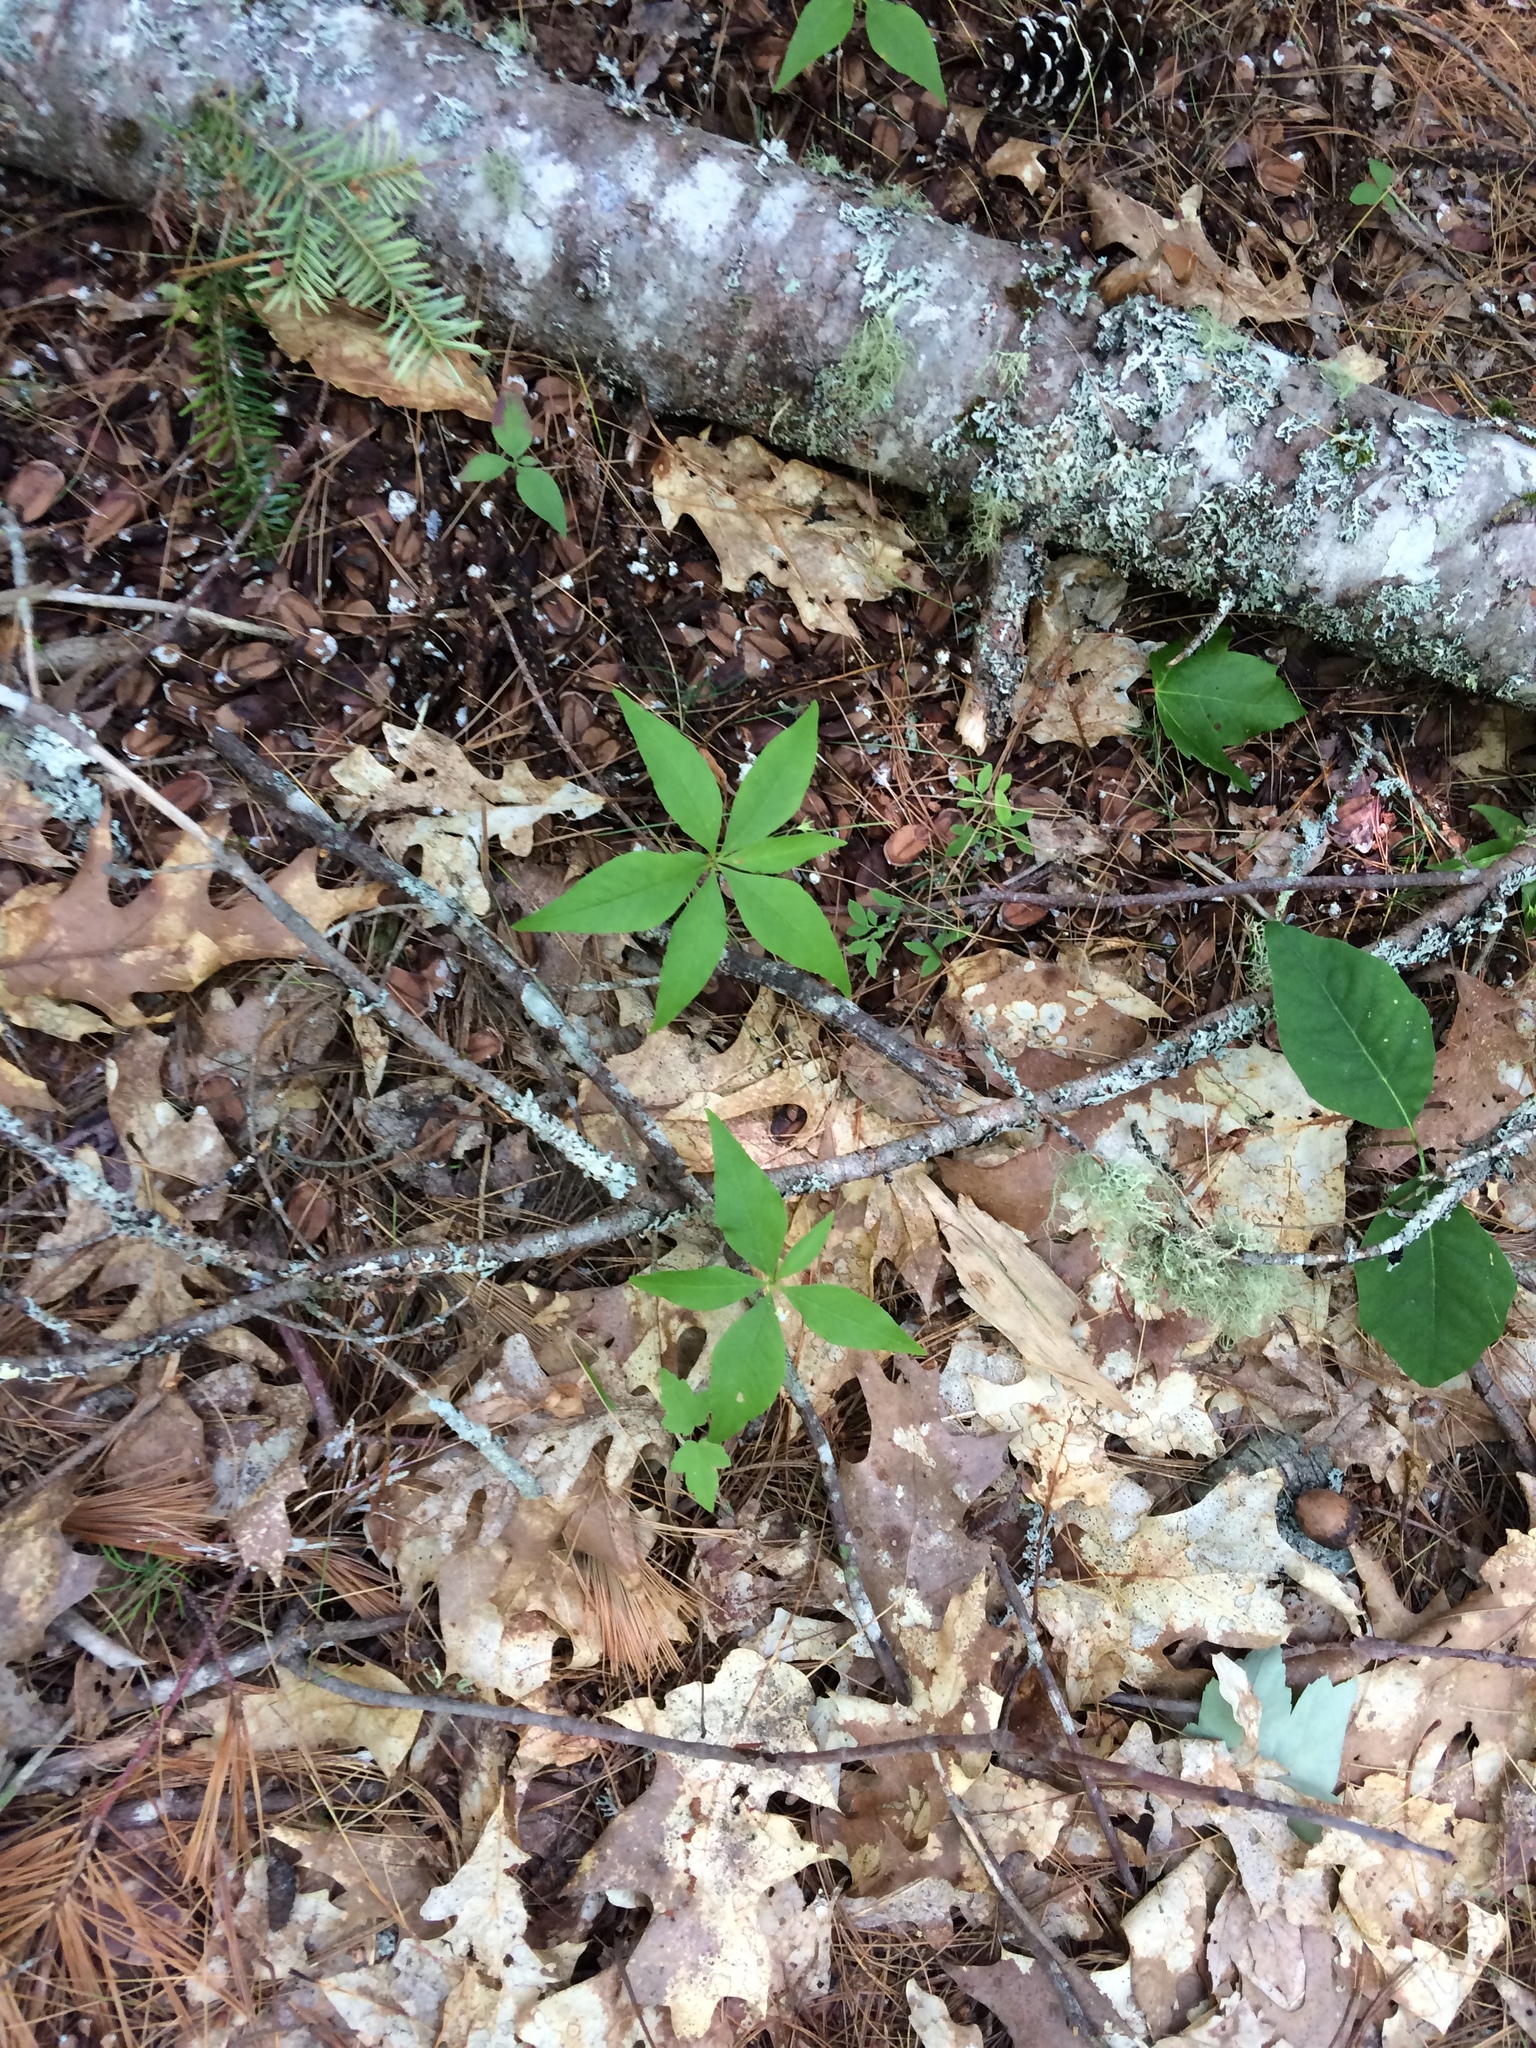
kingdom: Plantae
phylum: Tracheophyta
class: Magnoliopsida
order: Ericales
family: Primulaceae
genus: Lysimachia
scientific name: Lysimachia borealis
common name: American starflower
